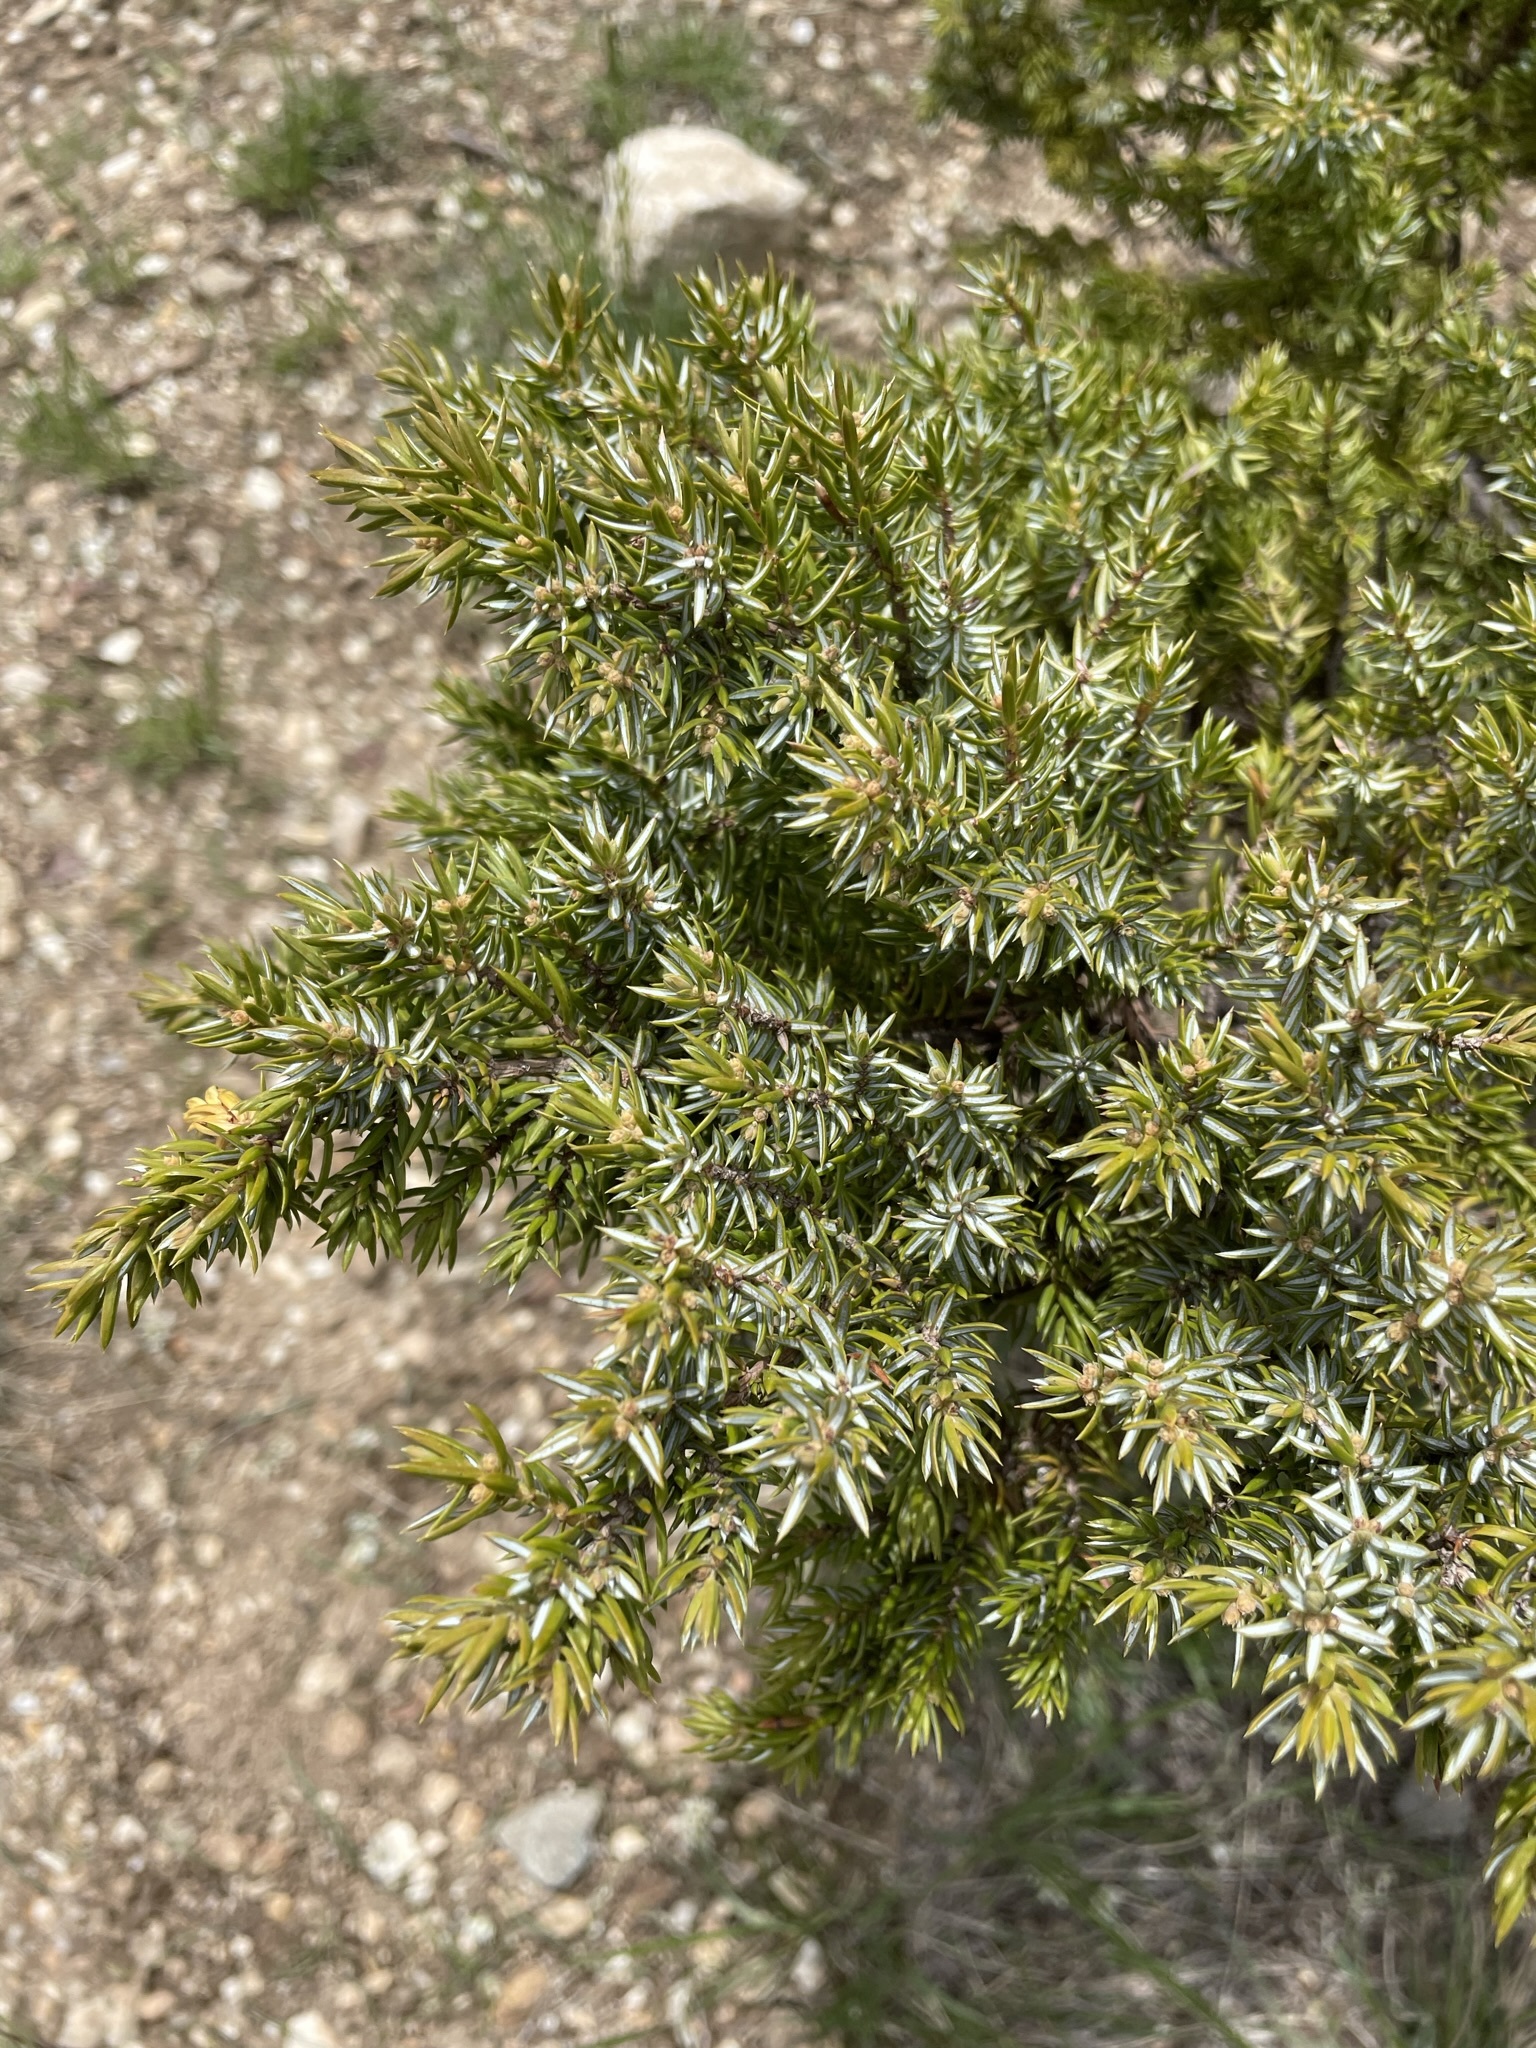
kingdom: Plantae
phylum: Tracheophyta
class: Pinopsida
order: Pinales
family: Cupressaceae
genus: Juniperus
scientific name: Juniperus communis
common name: Common juniper
